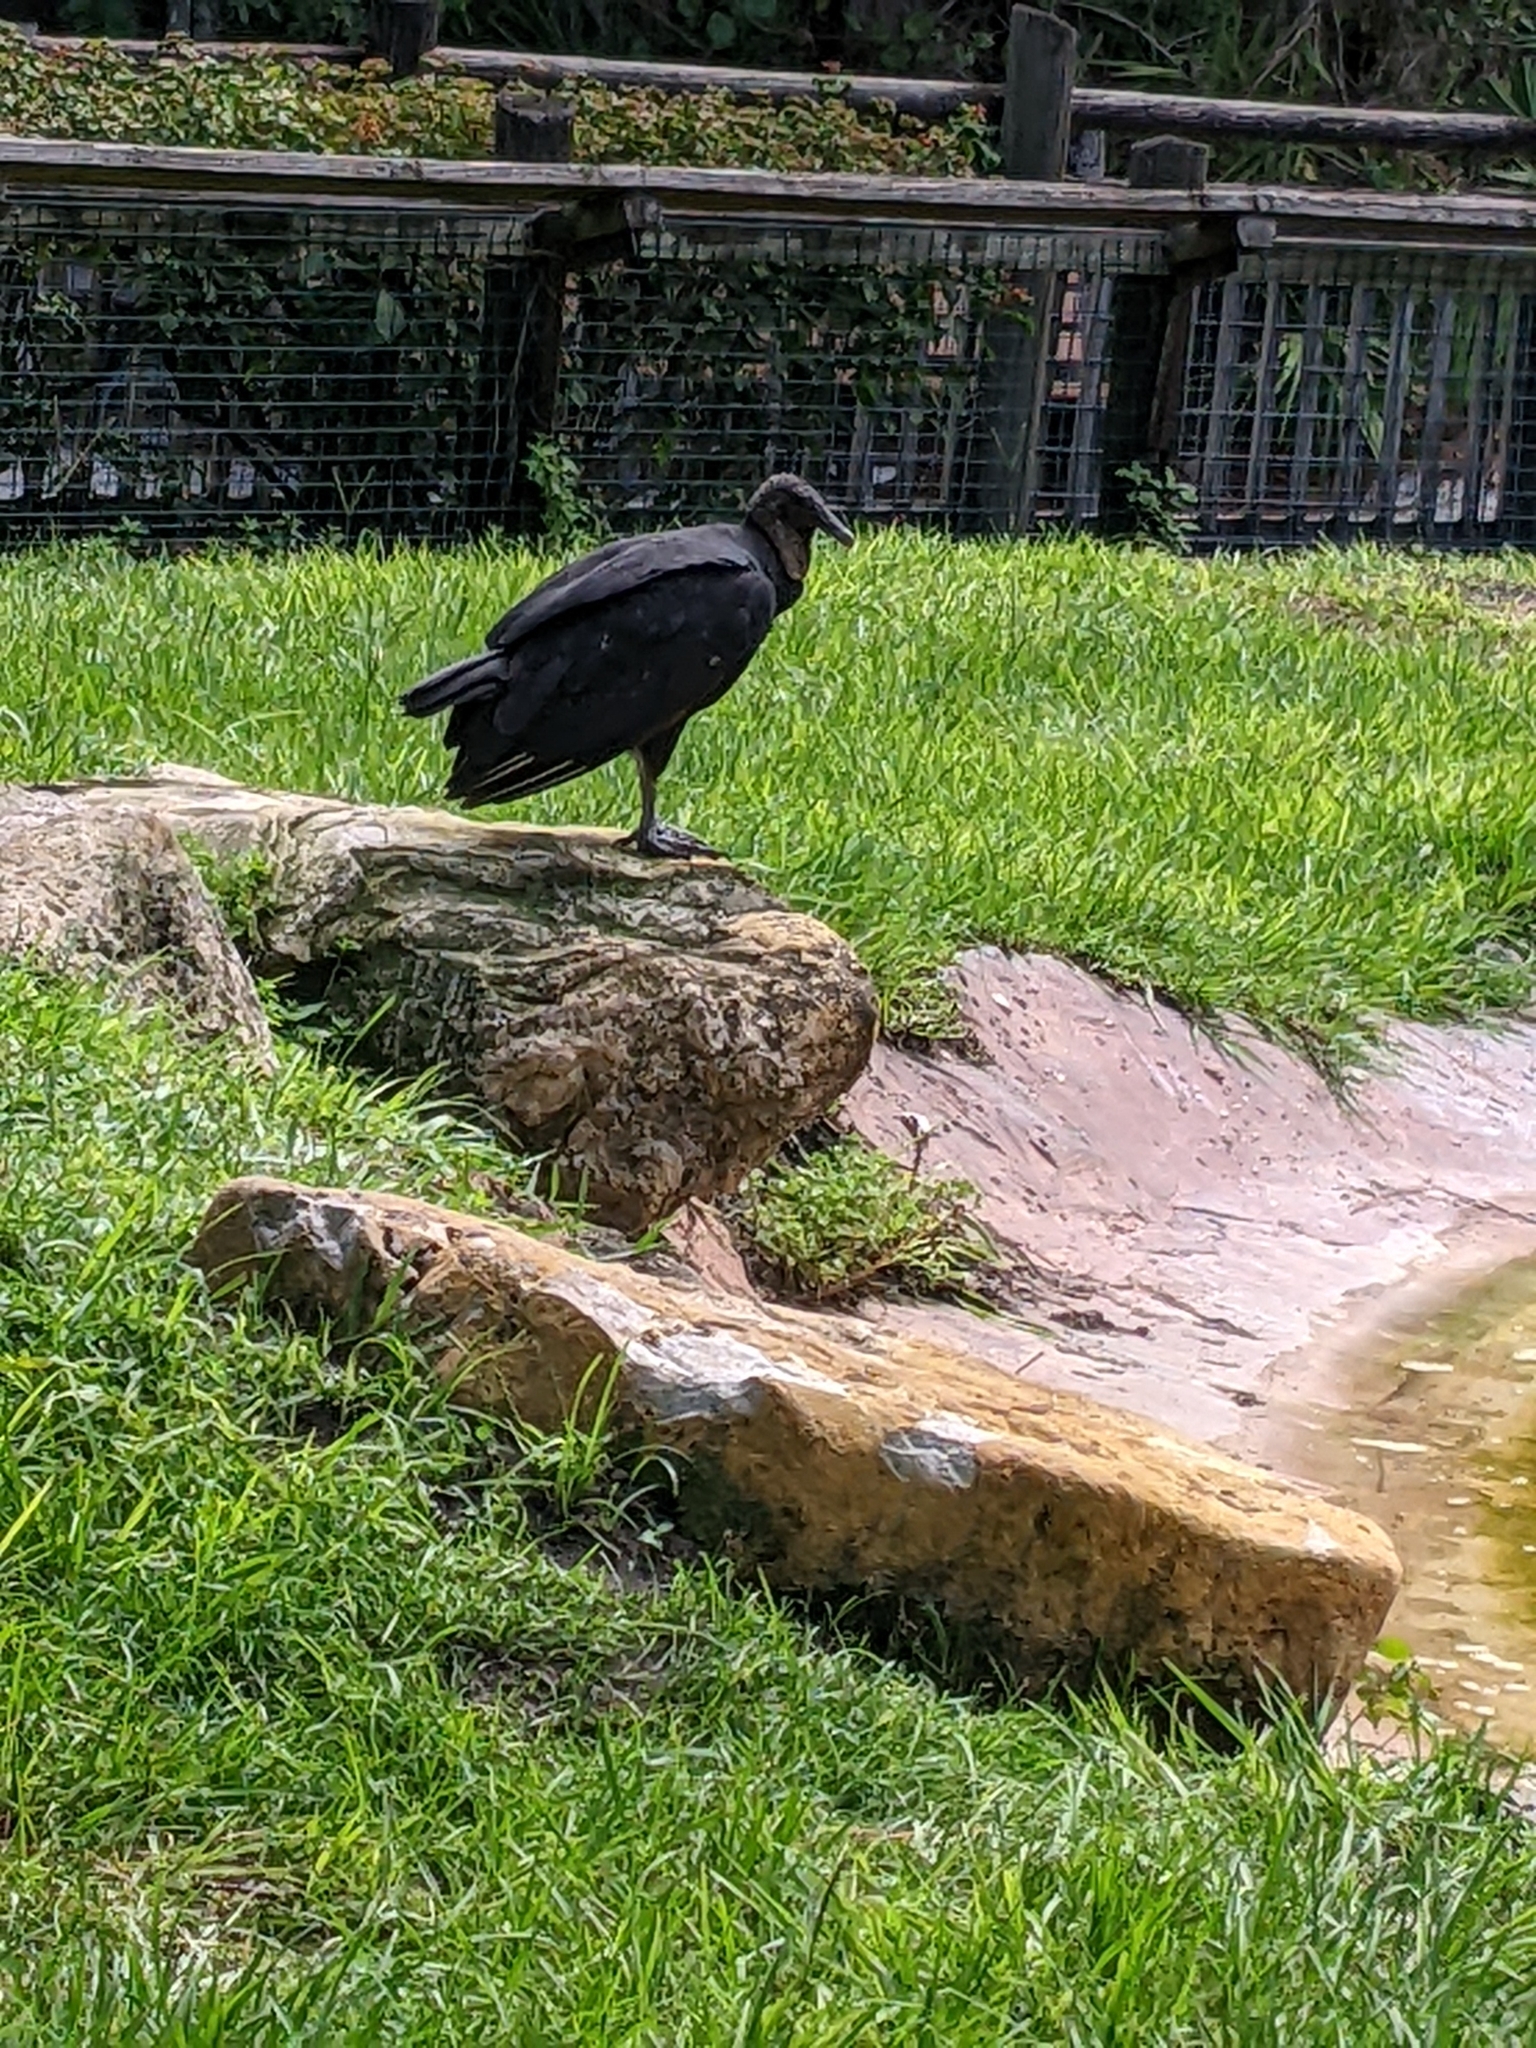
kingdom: Animalia
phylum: Chordata
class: Aves
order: Accipitriformes
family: Cathartidae
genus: Coragyps
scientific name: Coragyps atratus
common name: Black vulture
